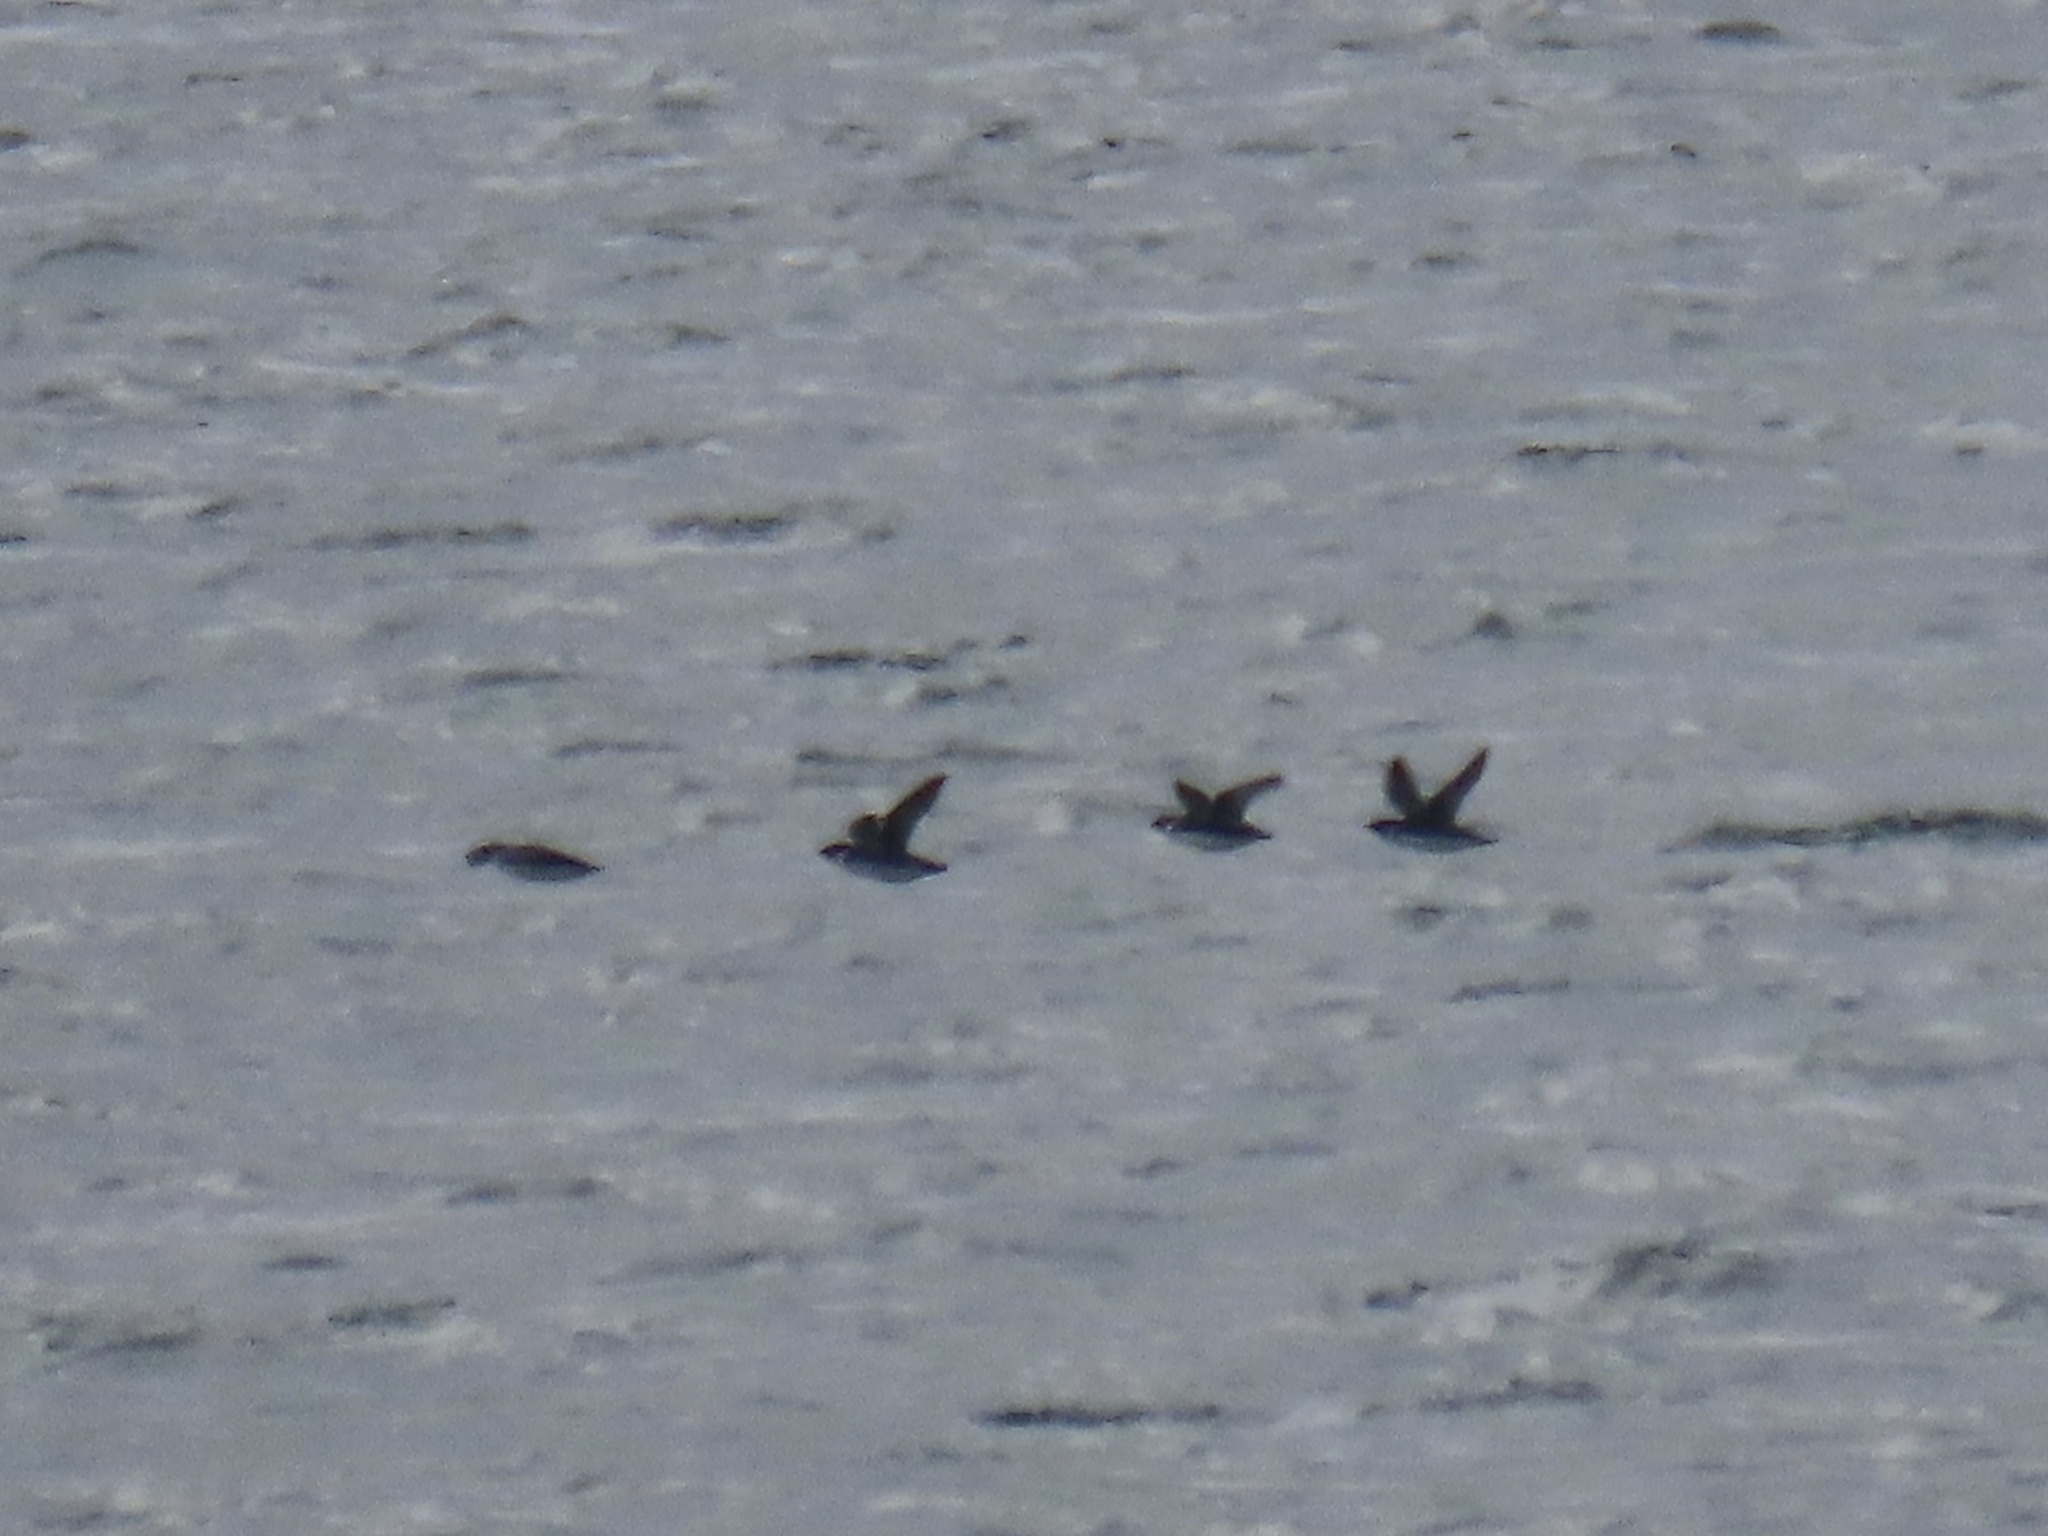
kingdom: Animalia
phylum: Chordata
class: Aves
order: Charadriiformes
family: Alcidae
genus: Synthliboramphus
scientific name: Synthliboramphus antiquus
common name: Ancient murrelet
